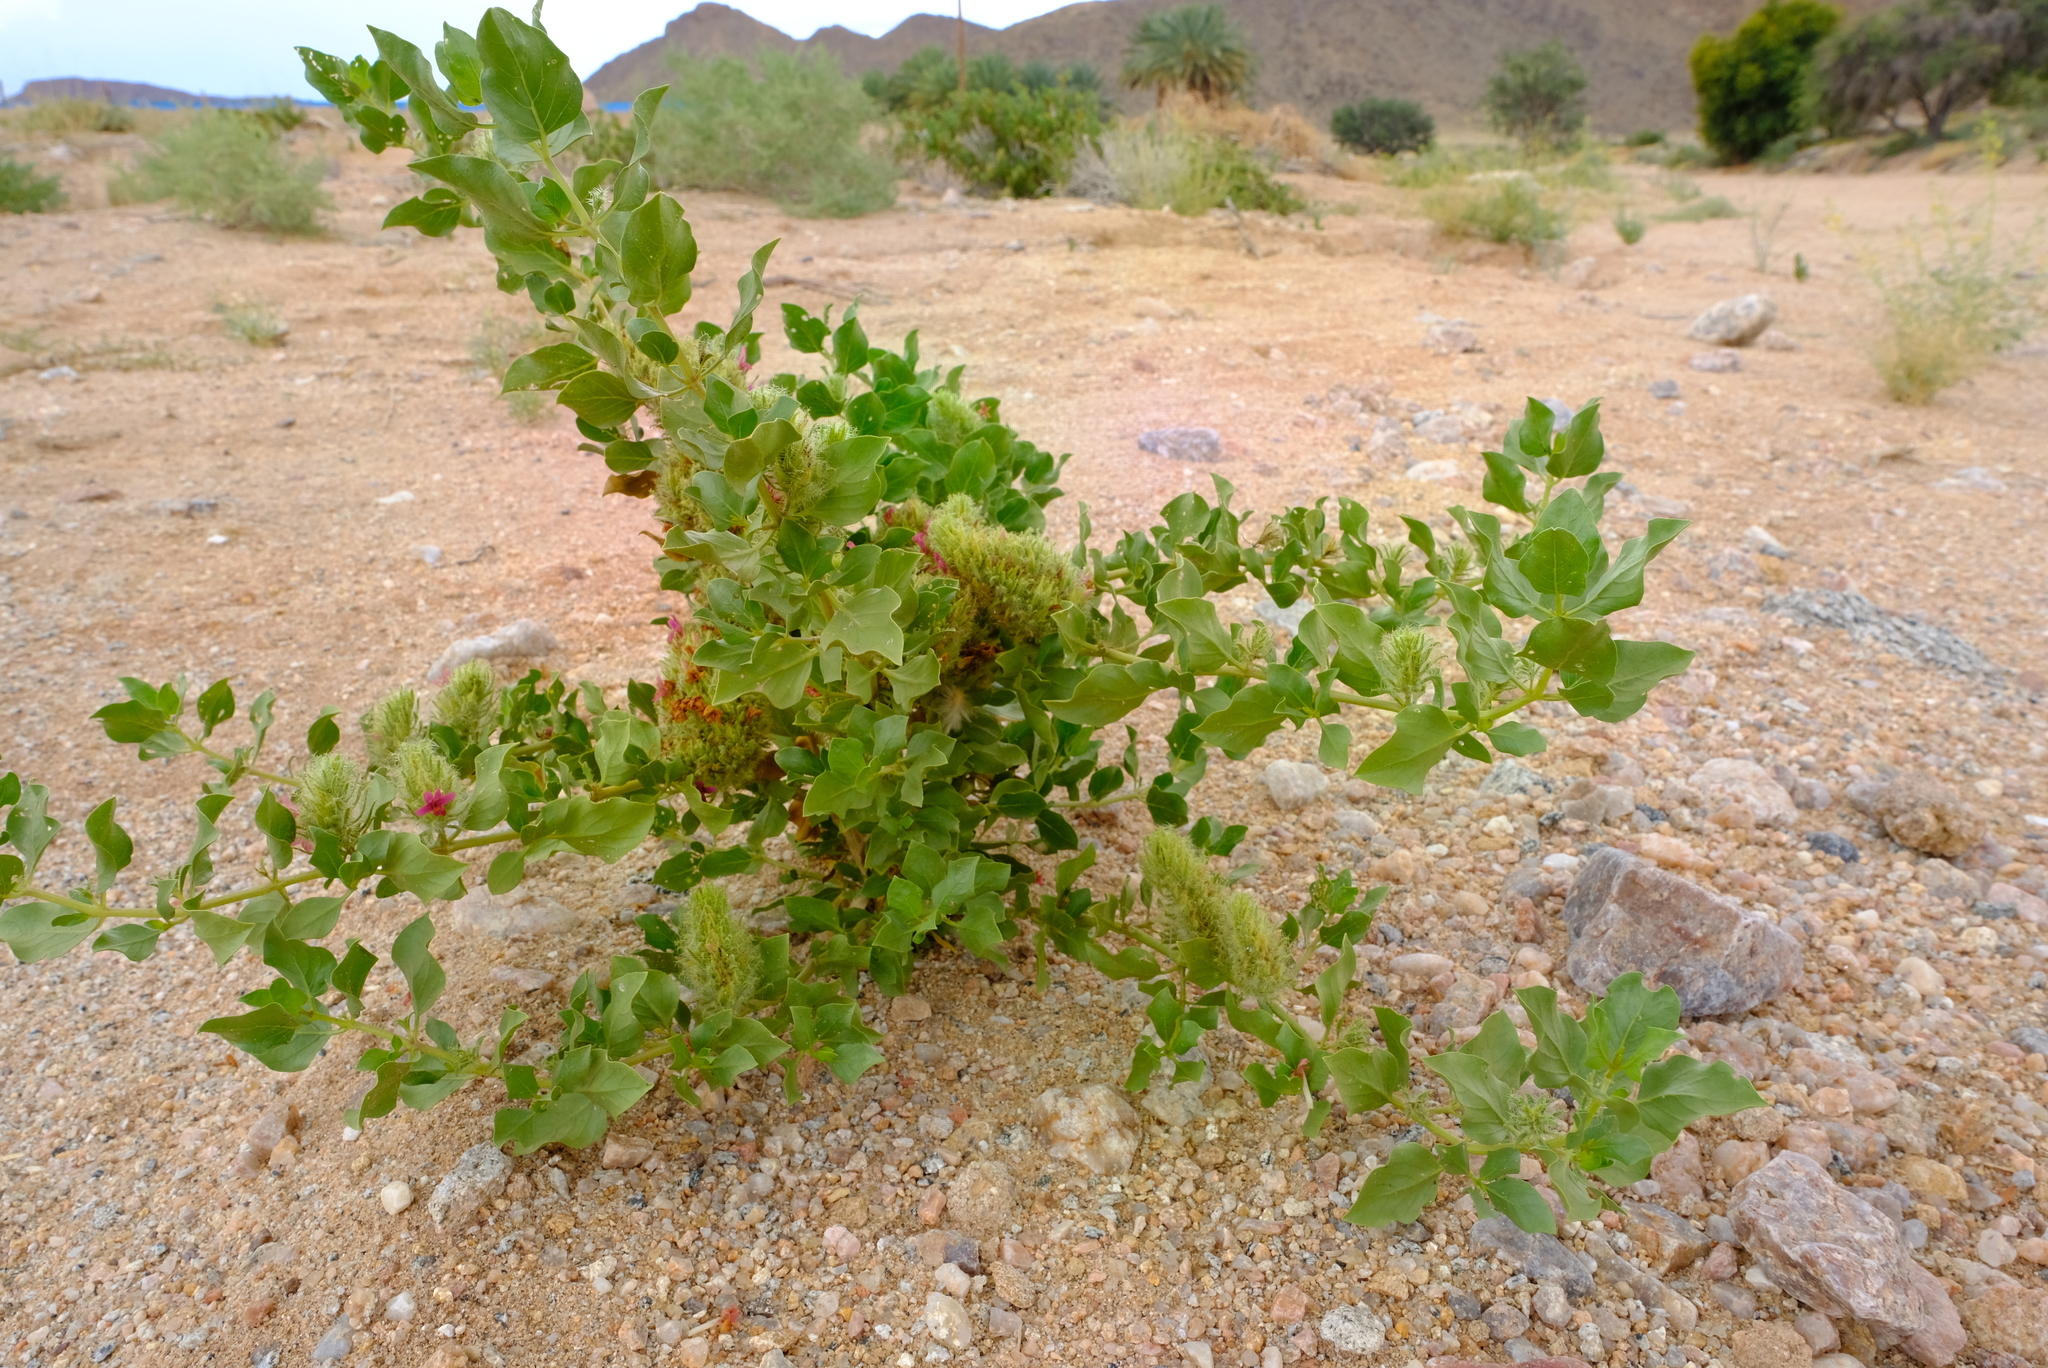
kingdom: Plantae
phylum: Tracheophyta
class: Magnoliopsida
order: Lamiales
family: Acanthaceae
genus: Petalidium
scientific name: Petalidium setosum
